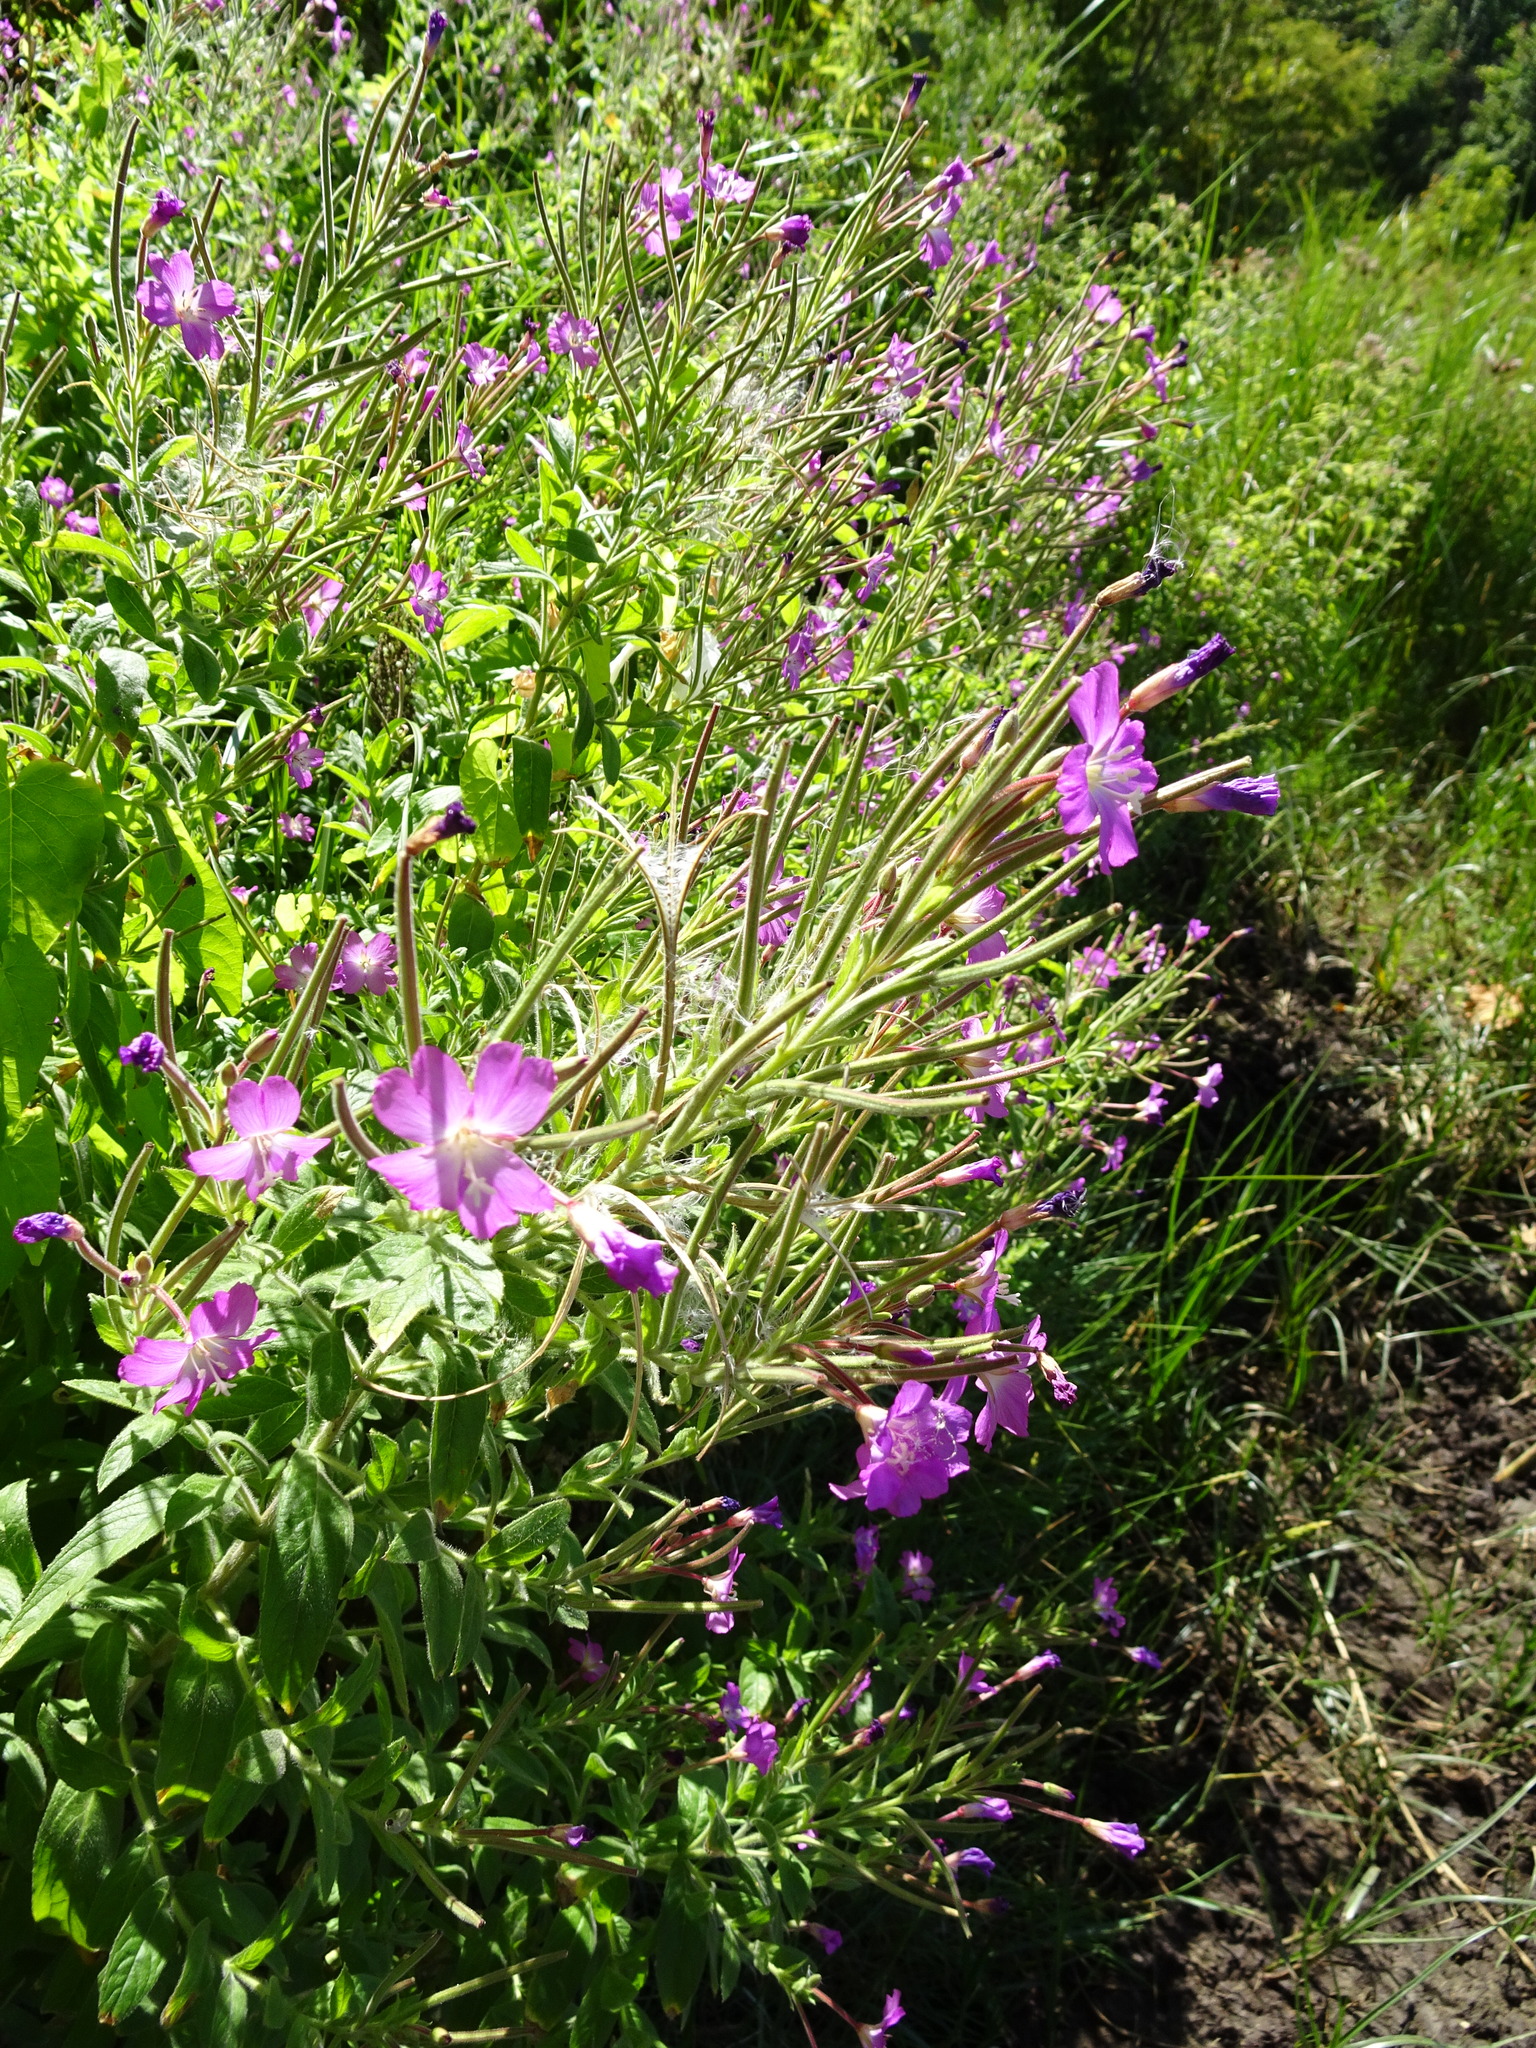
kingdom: Plantae
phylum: Tracheophyta
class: Magnoliopsida
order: Myrtales
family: Onagraceae
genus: Epilobium
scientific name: Epilobium hirsutum
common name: Great willowherb
